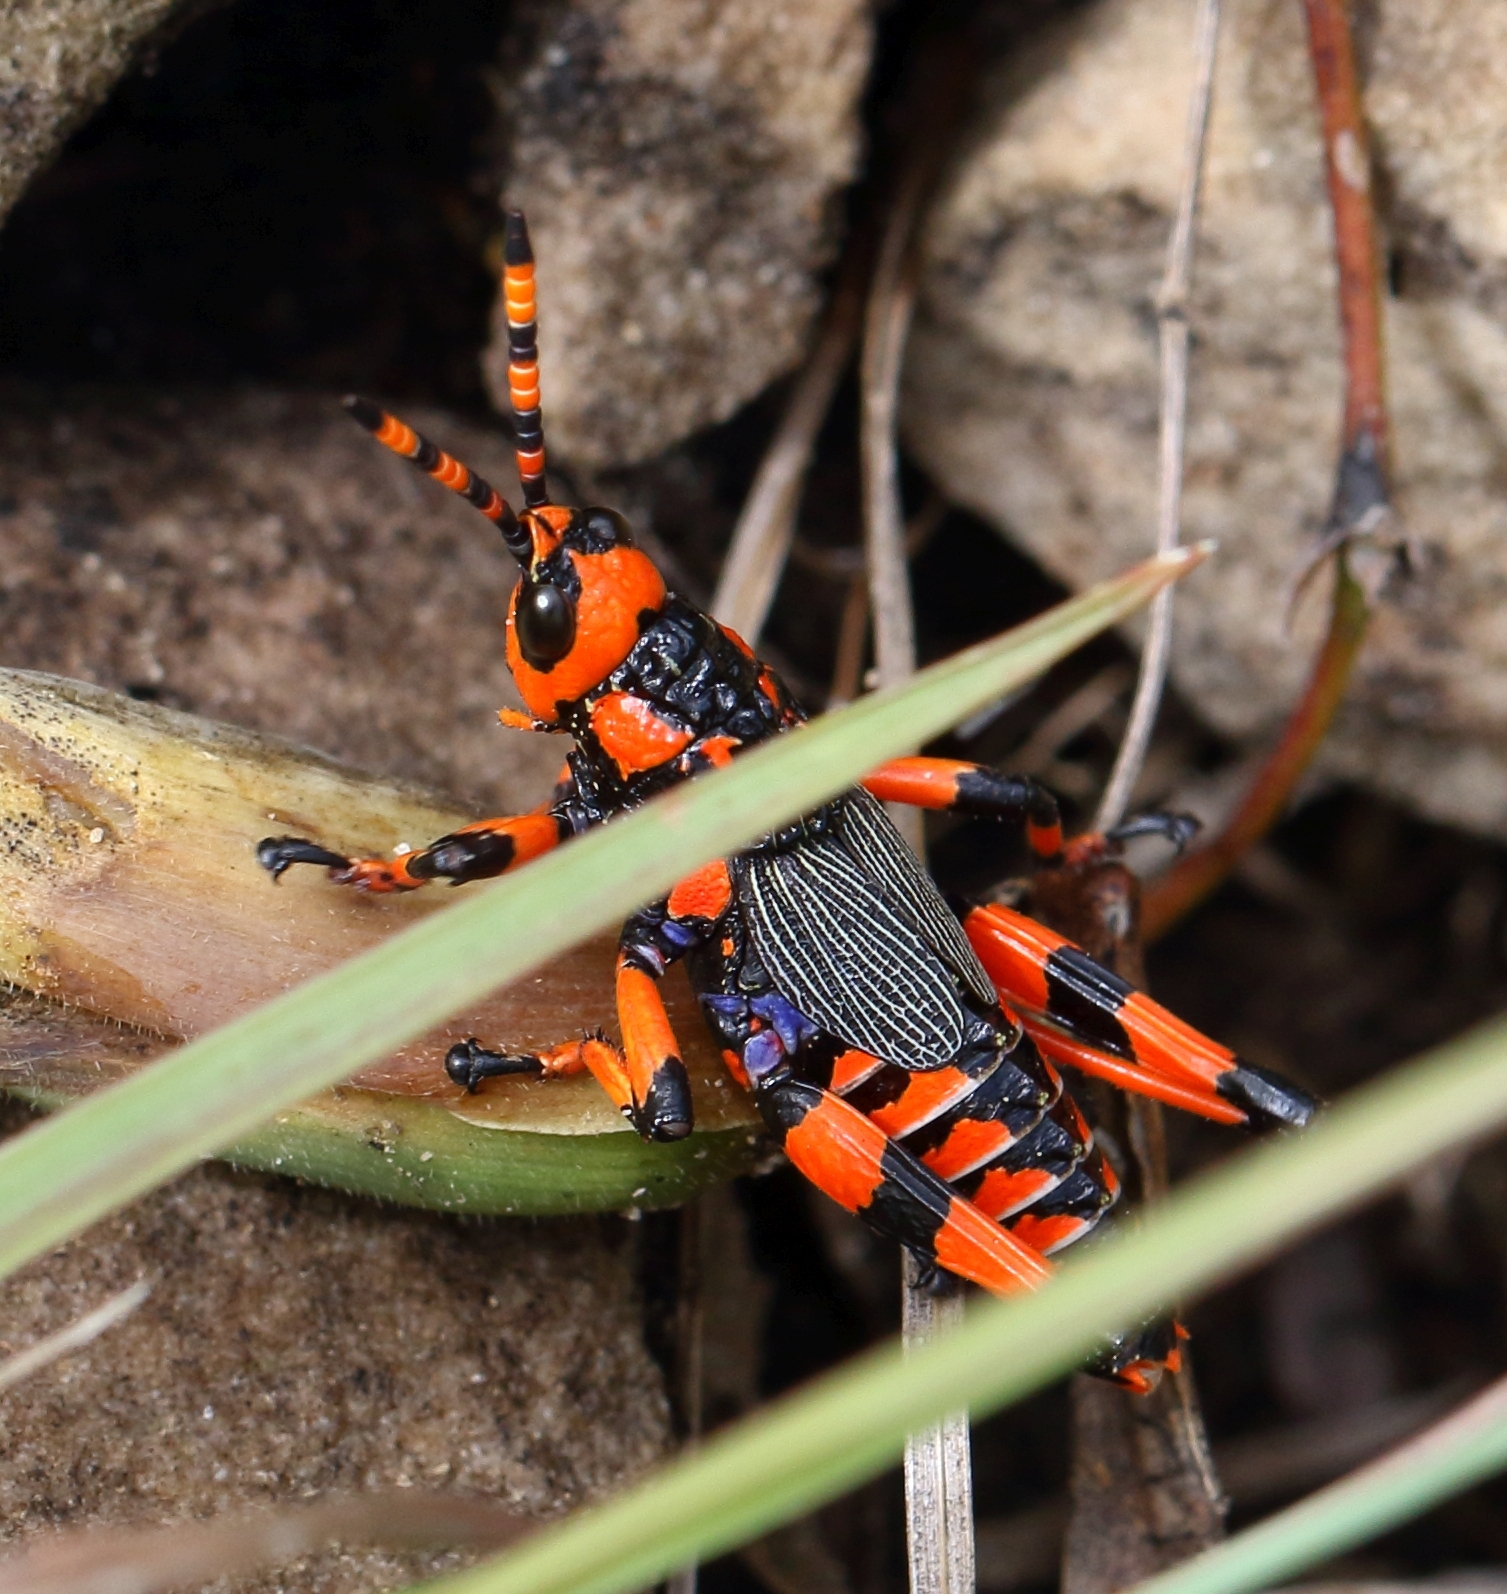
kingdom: Animalia
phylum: Arthropoda
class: Insecta
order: Orthoptera
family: Pyrgomorphidae
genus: Maura
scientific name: Maura rubroornata
